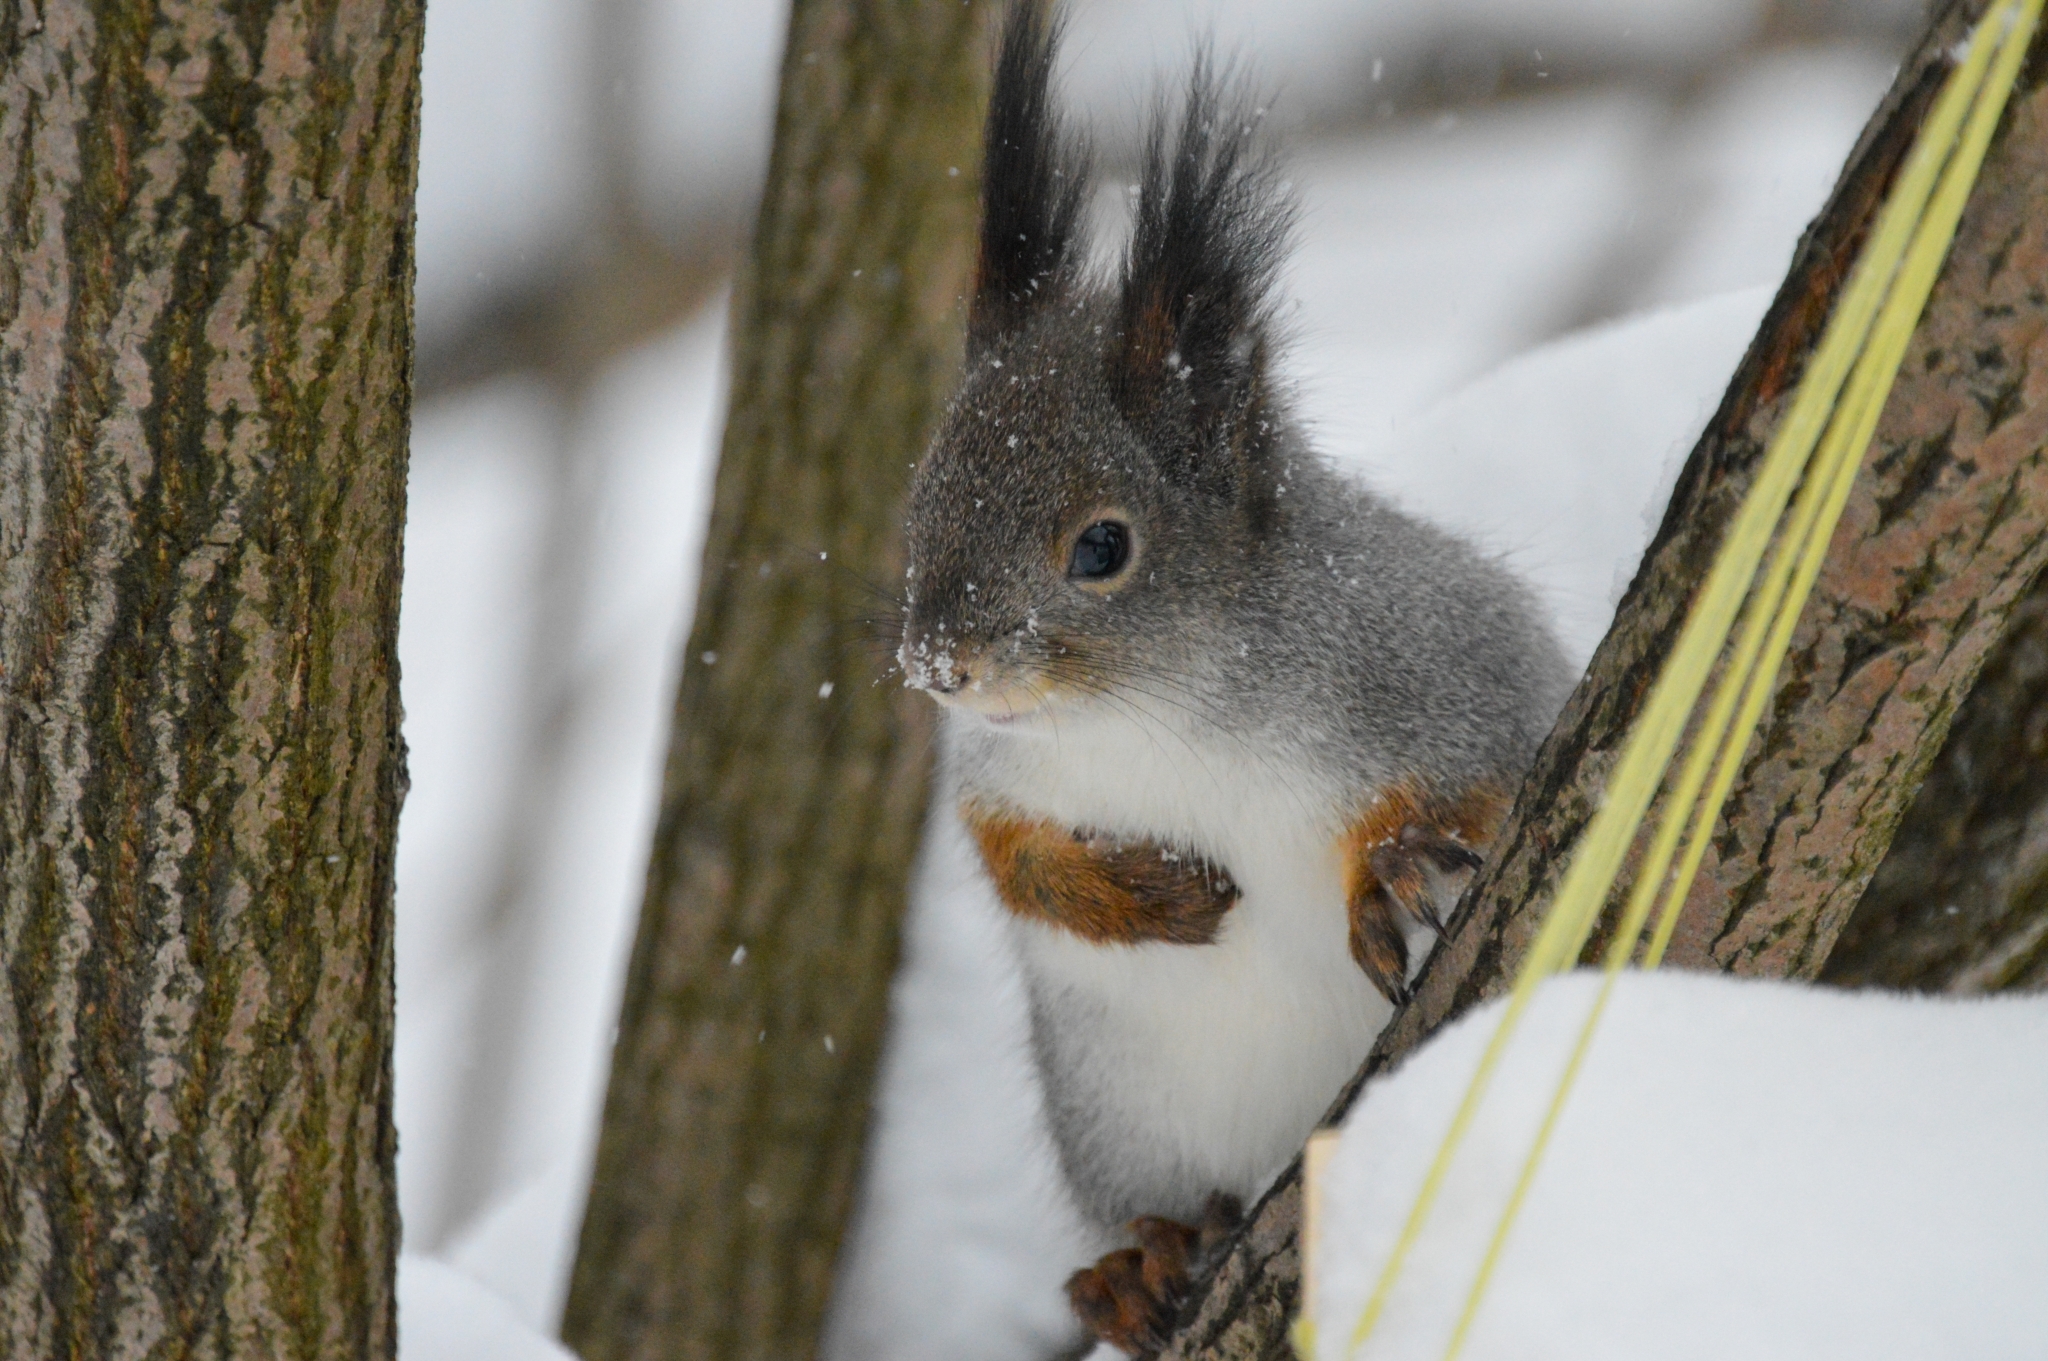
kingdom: Animalia
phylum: Chordata
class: Mammalia
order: Rodentia
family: Sciuridae
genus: Sciurus
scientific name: Sciurus vulgaris
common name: Eurasian red squirrel
